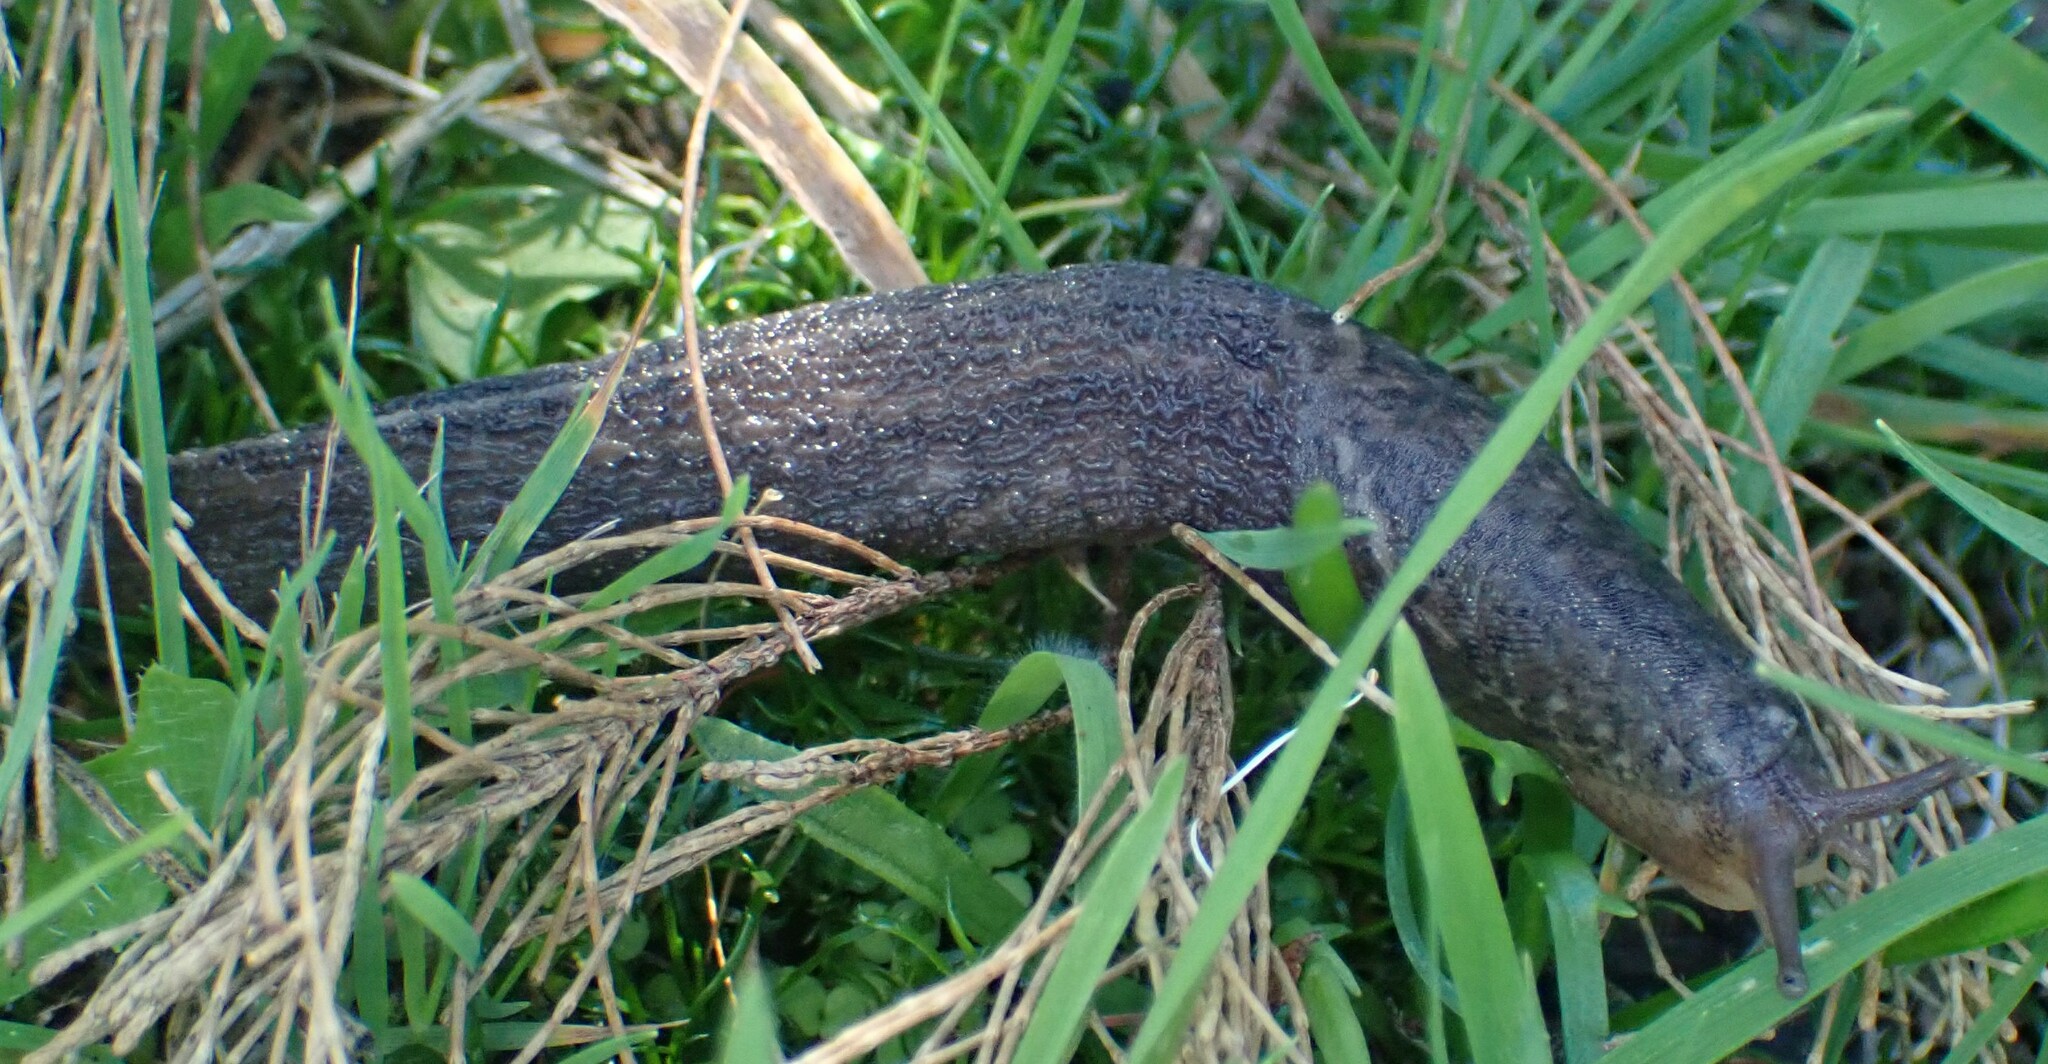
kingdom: Animalia
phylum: Mollusca
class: Gastropoda
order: Stylommatophora
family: Limacidae
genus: Limax
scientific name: Limax maximus
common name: Great grey slug
